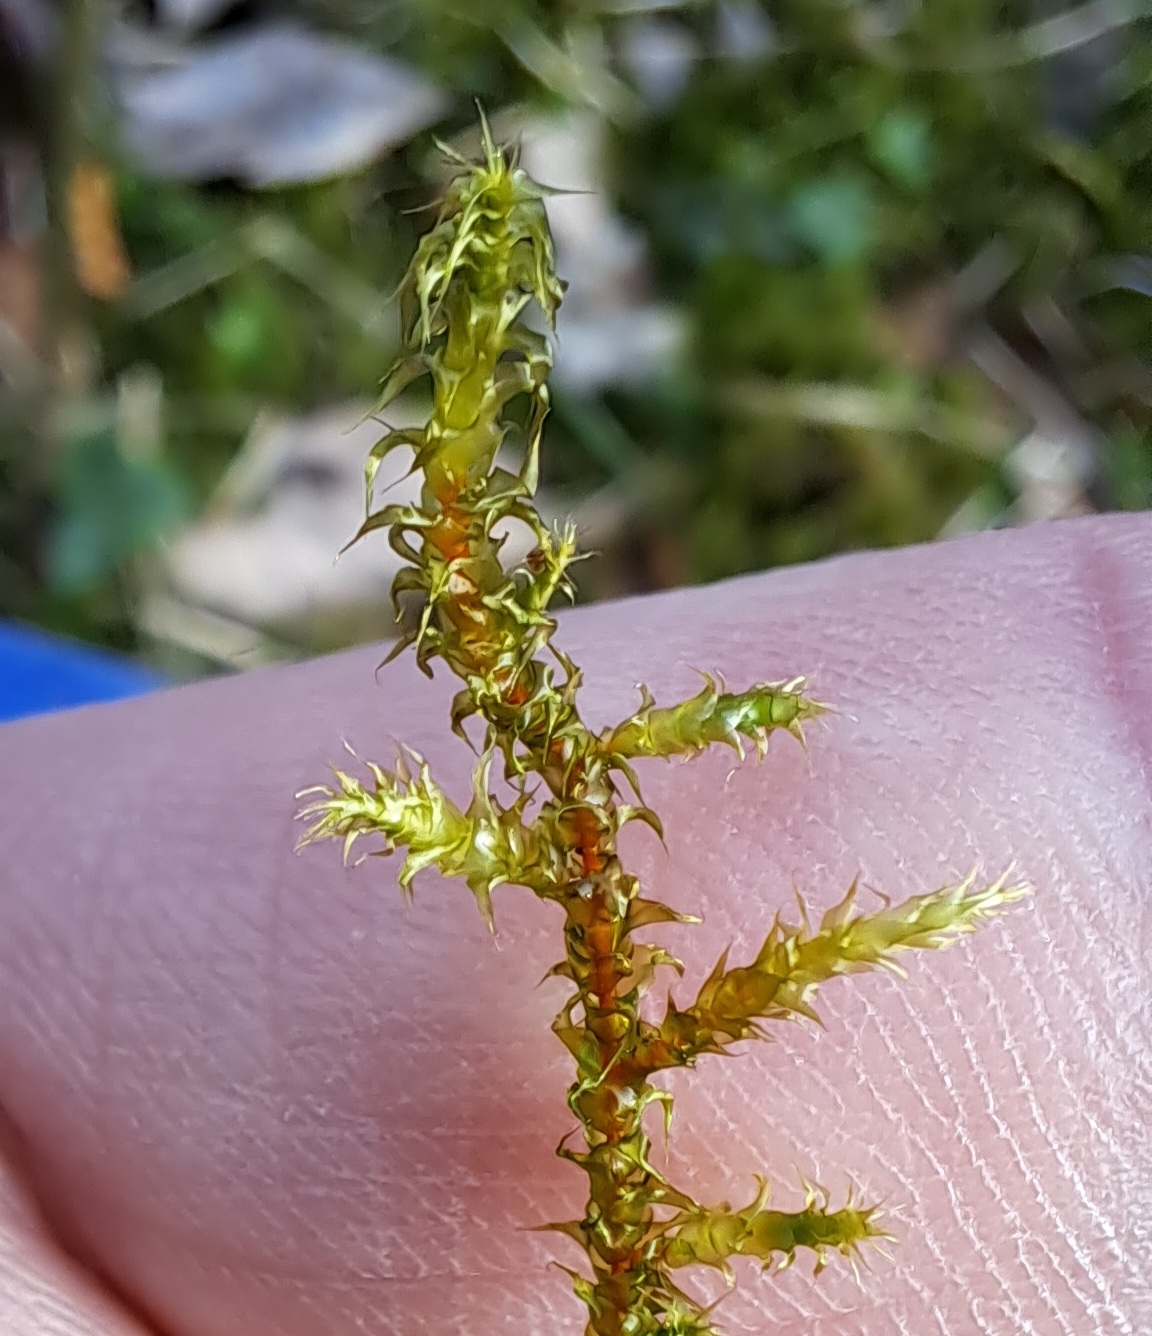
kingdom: Plantae
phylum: Bryophyta
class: Bryopsida
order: Hypnales
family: Hylocomiaceae
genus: Rhytidiadelphus
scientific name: Rhytidiadelphus squarrosus
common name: Springy turf-moss
